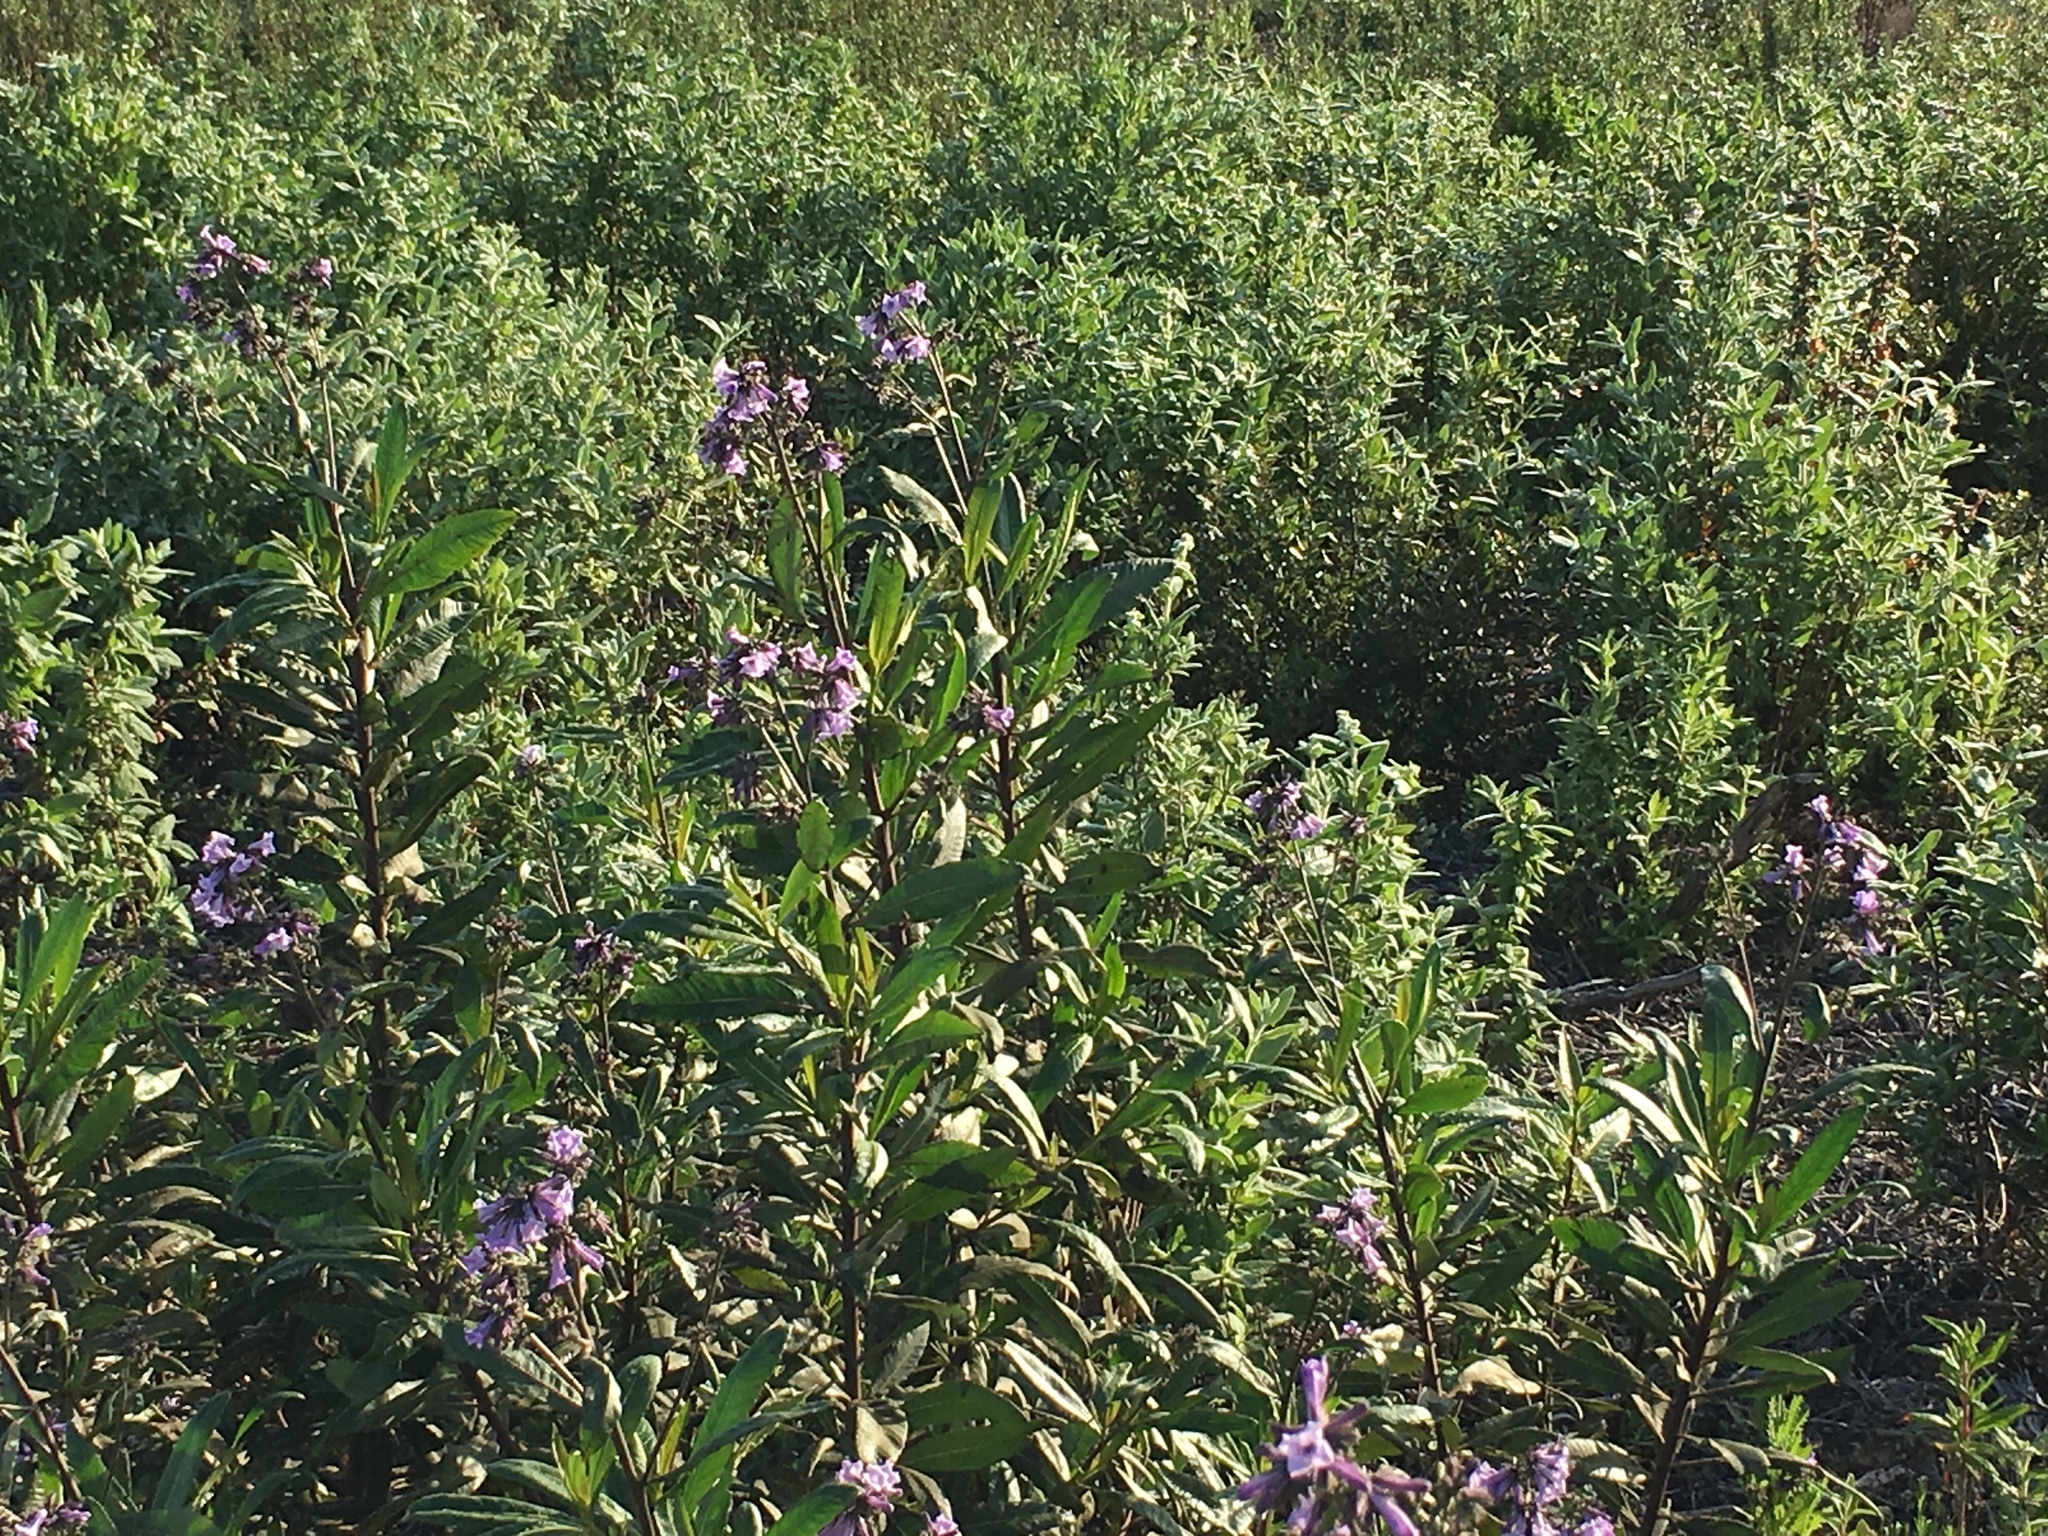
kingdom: Plantae
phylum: Tracheophyta
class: Magnoliopsida
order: Boraginales
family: Namaceae
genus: Eriodictyon
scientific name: Eriodictyon californicum
